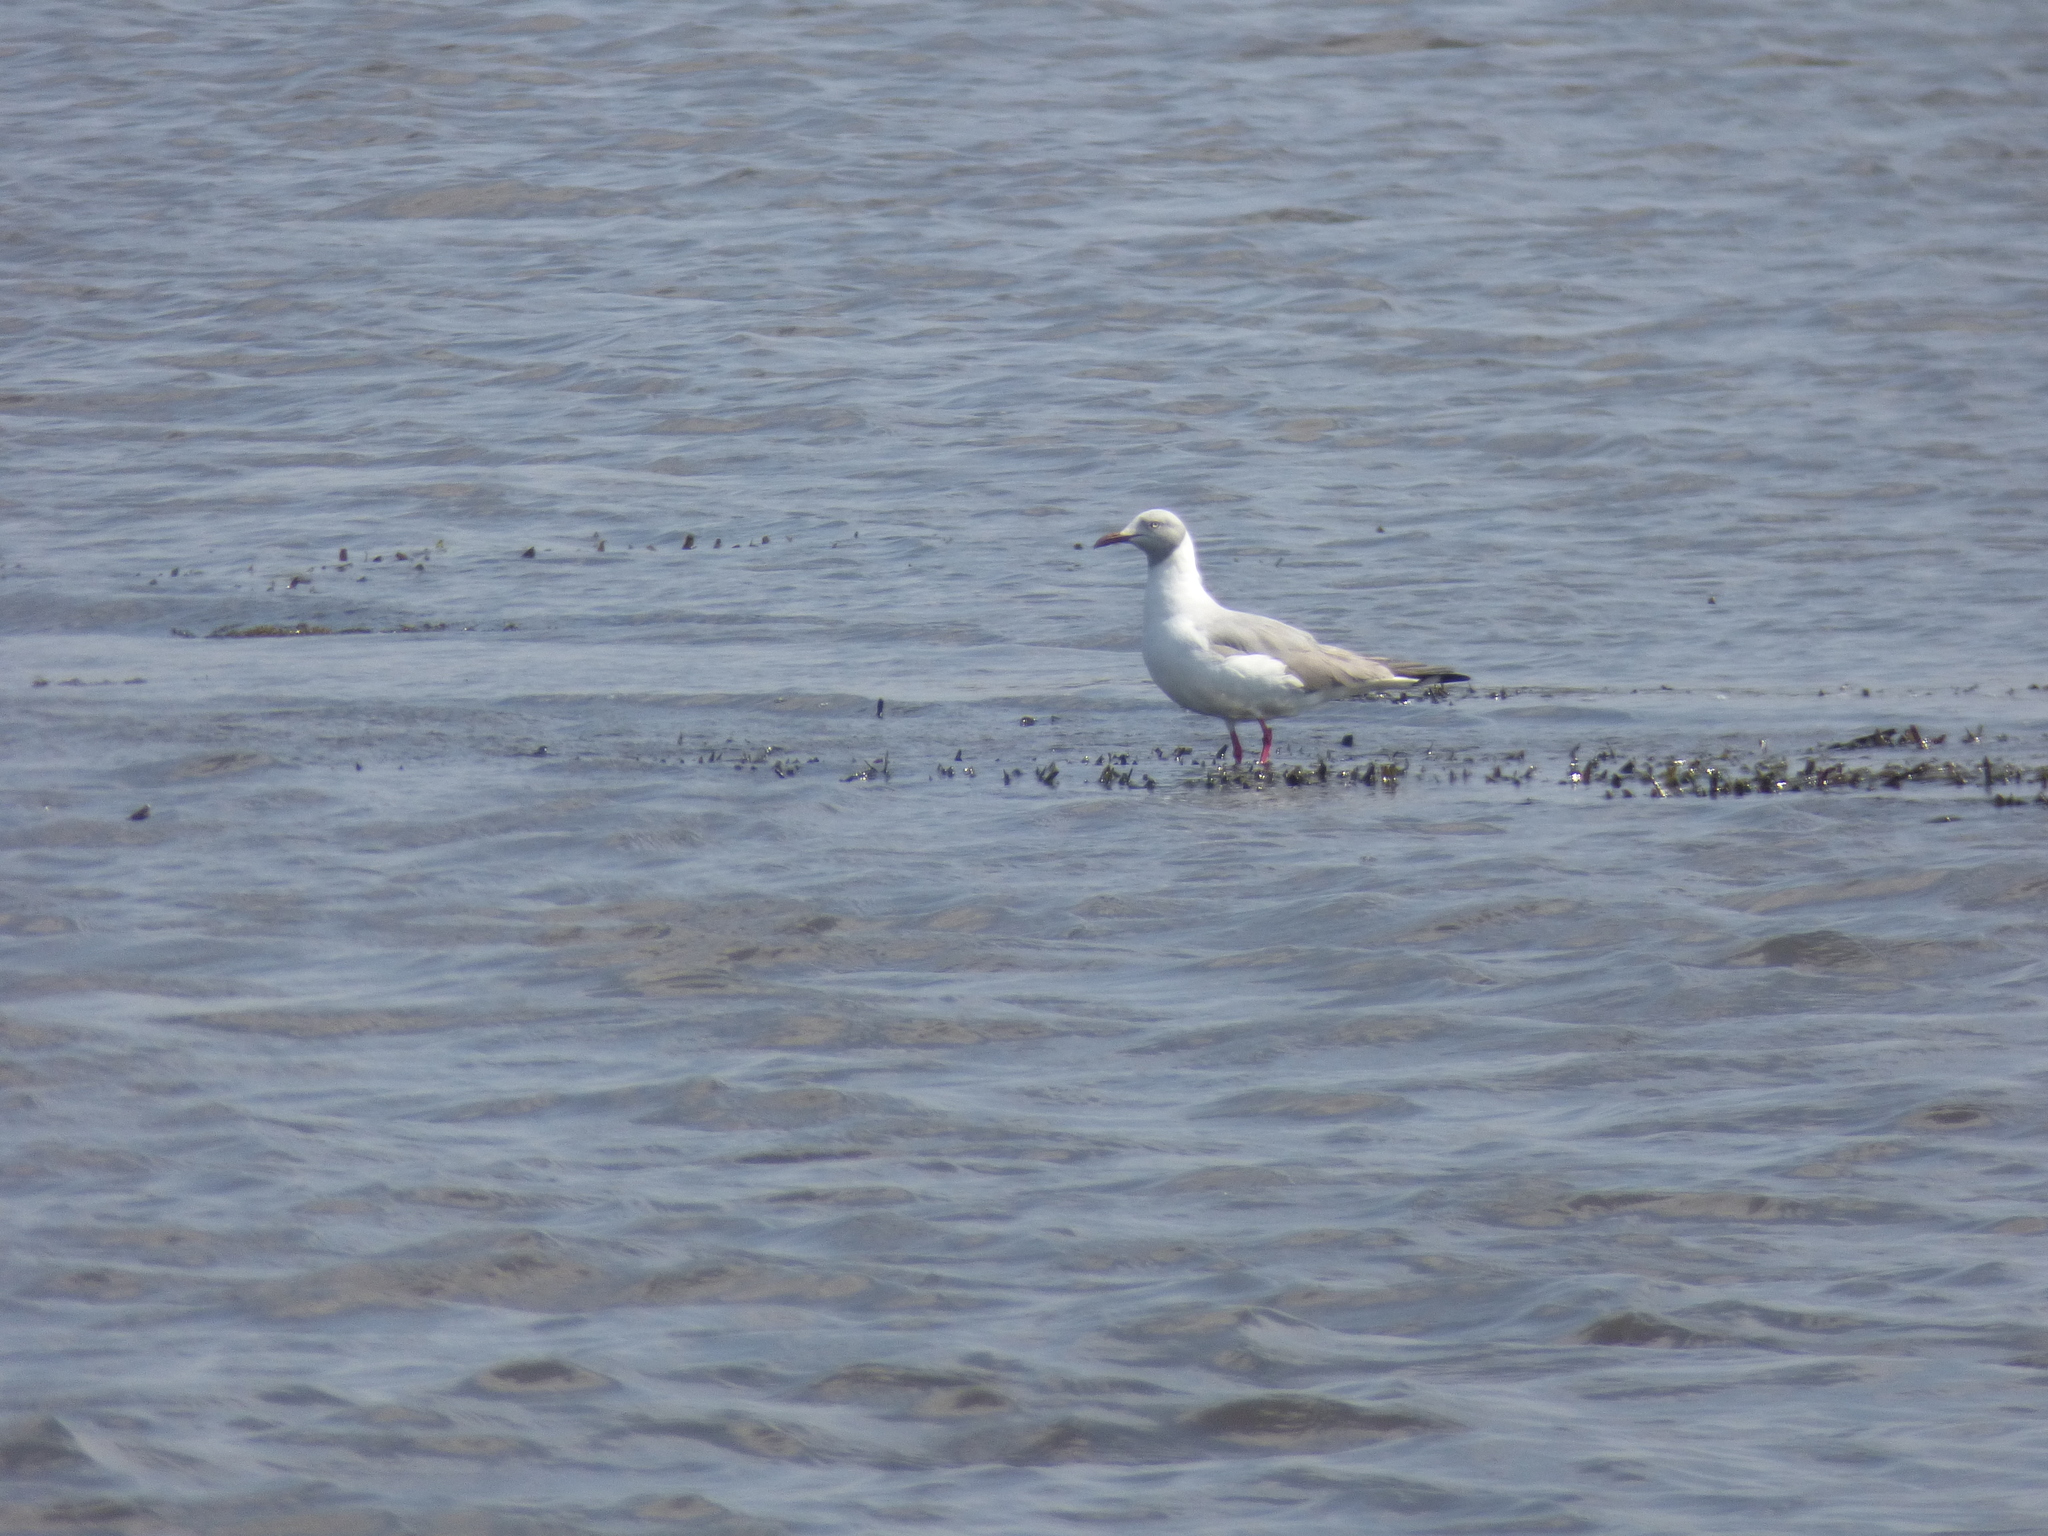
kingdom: Animalia
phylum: Chordata
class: Aves
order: Charadriiformes
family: Laridae
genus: Chroicocephalus
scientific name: Chroicocephalus cirrocephalus
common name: Grey-headed gull
